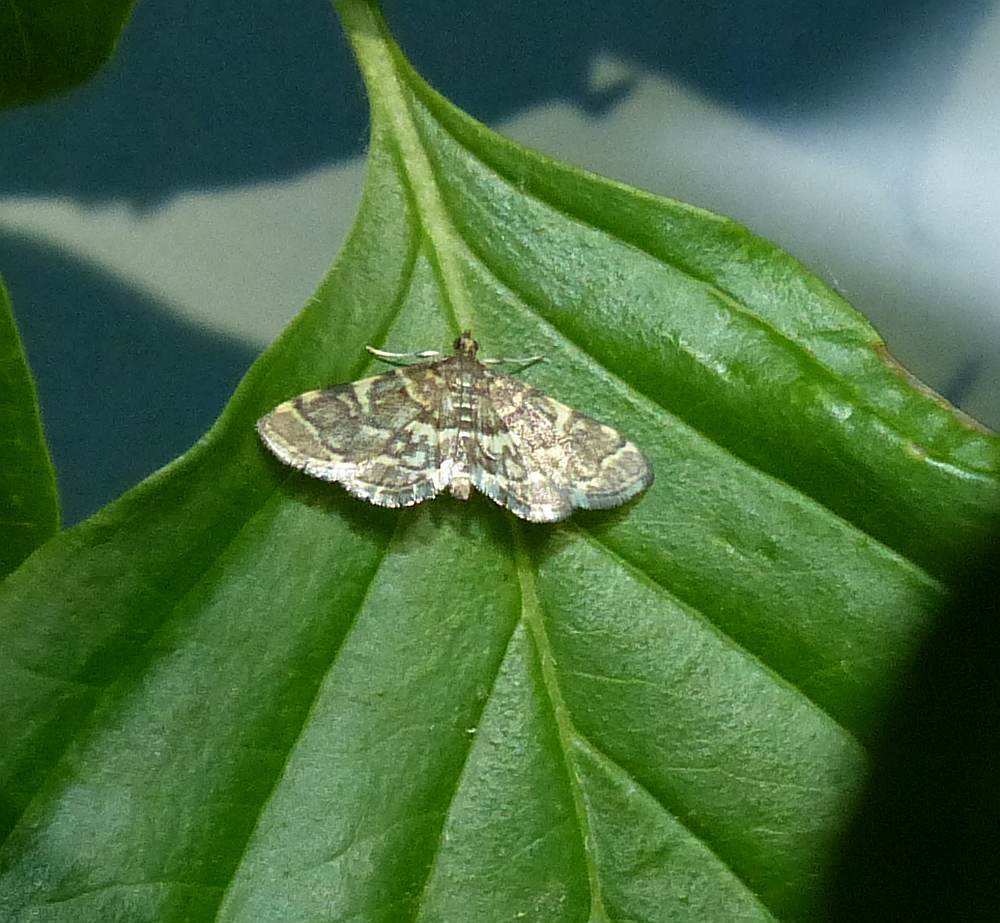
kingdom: Animalia
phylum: Arthropoda
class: Insecta
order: Lepidoptera
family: Crambidae
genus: Anageshna
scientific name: Anageshna primordialis
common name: Yellow-spotted webworm moth
